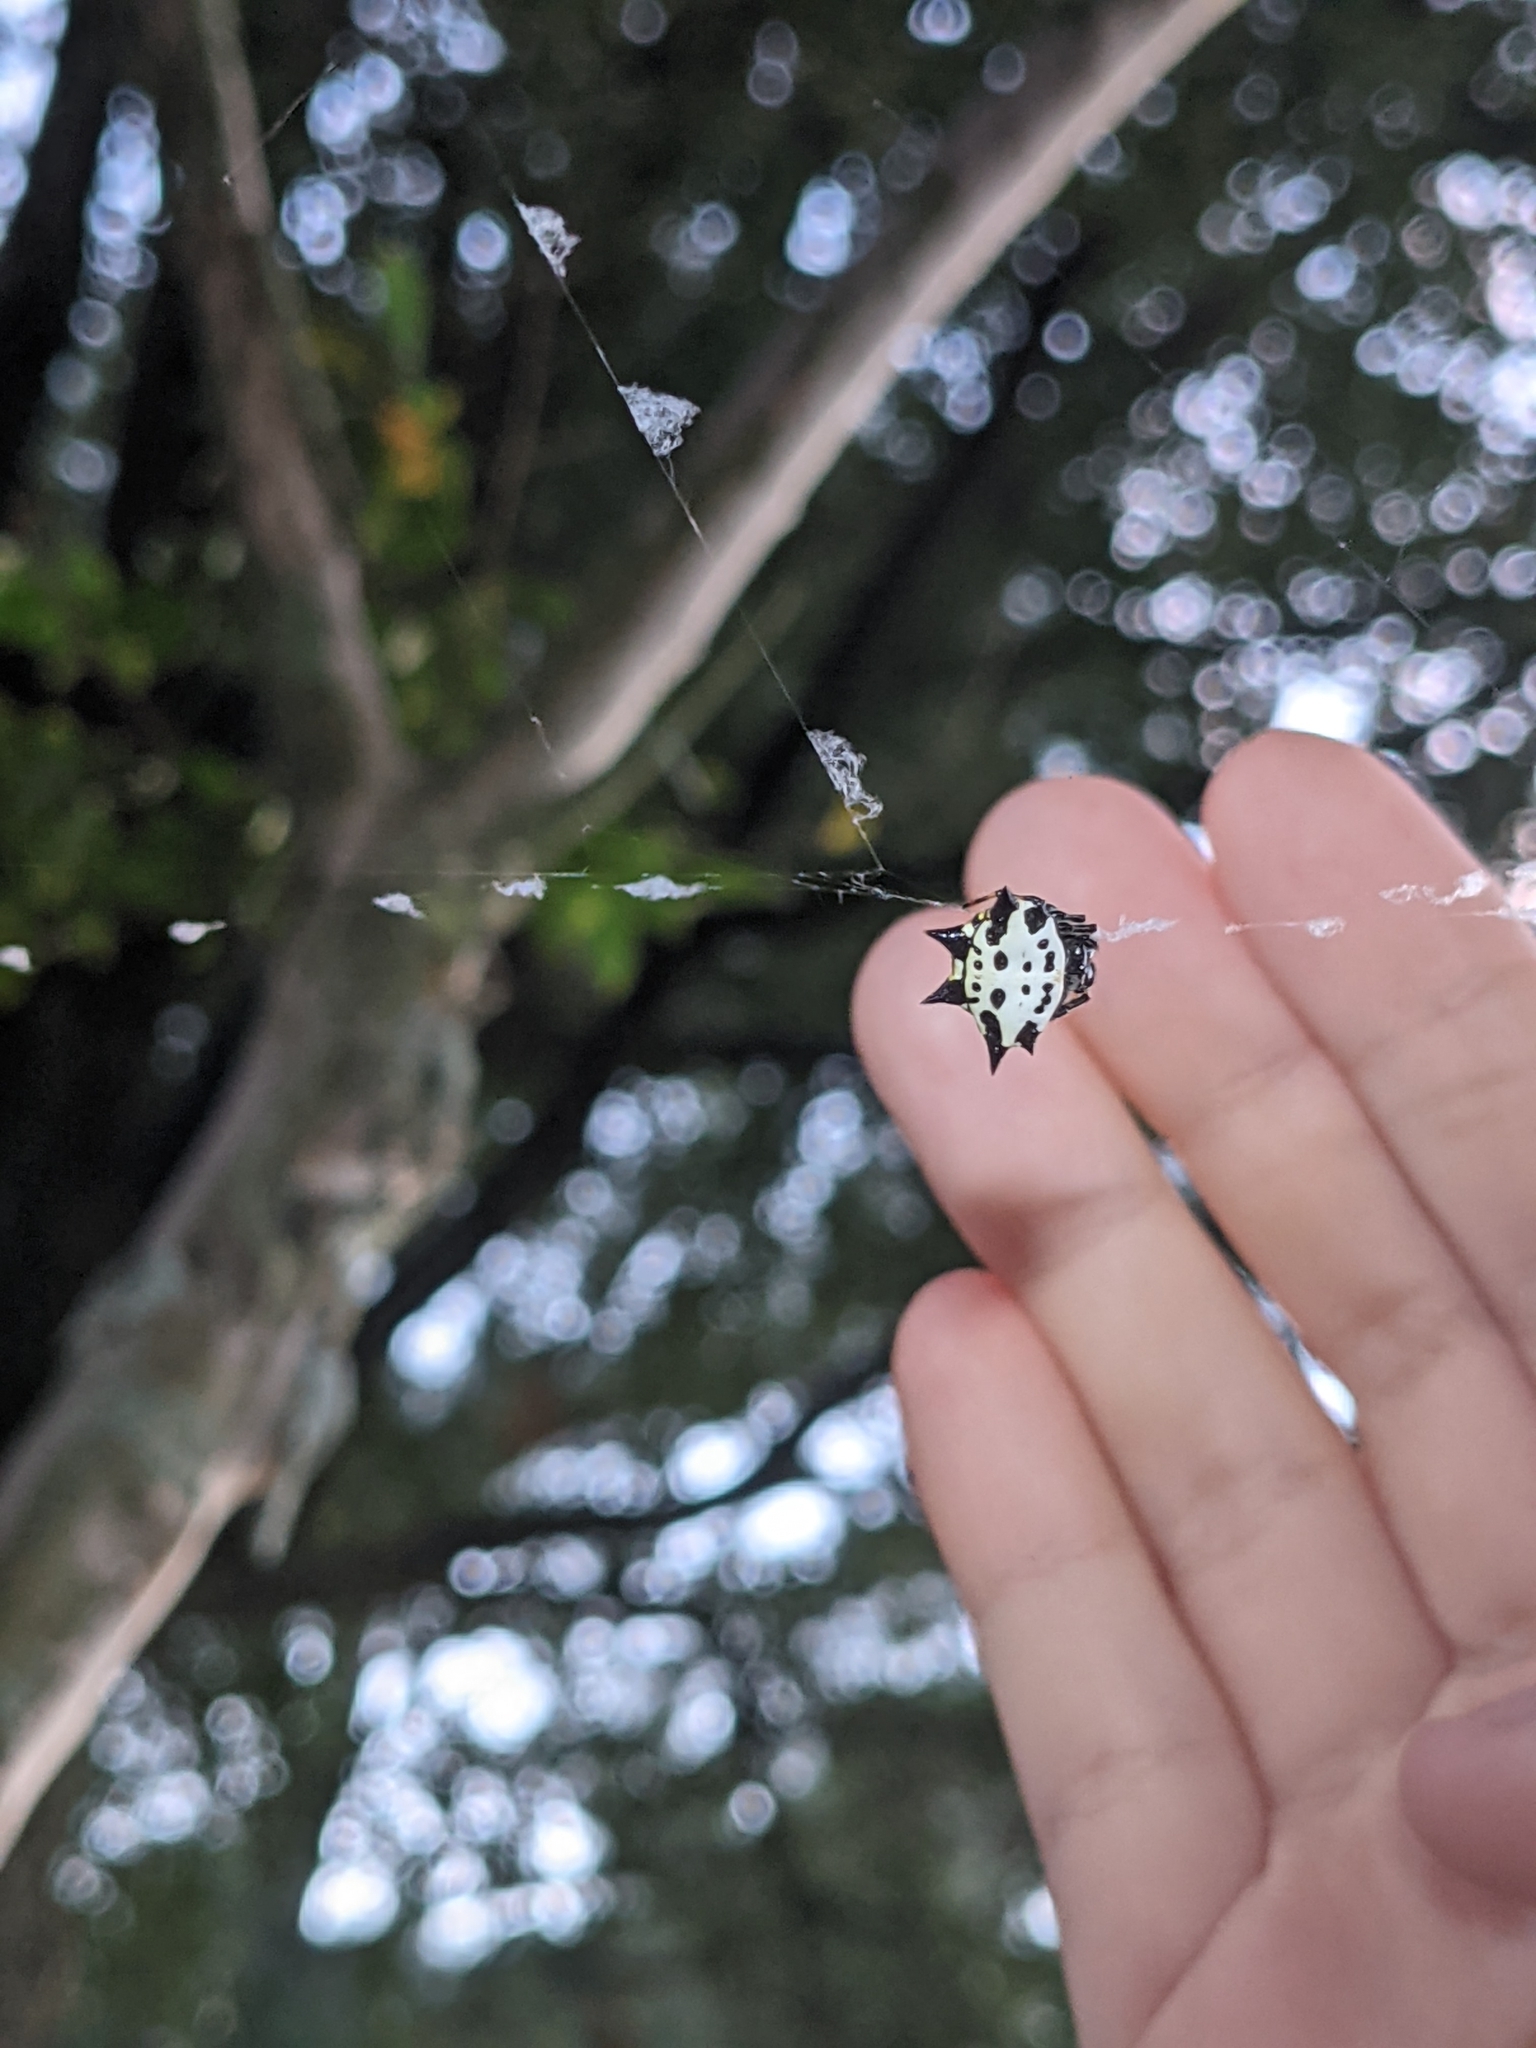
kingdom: Animalia
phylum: Arthropoda
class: Arachnida
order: Araneae
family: Araneidae
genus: Gasteracantha
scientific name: Gasteracantha cancriformis
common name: Orb weavers
